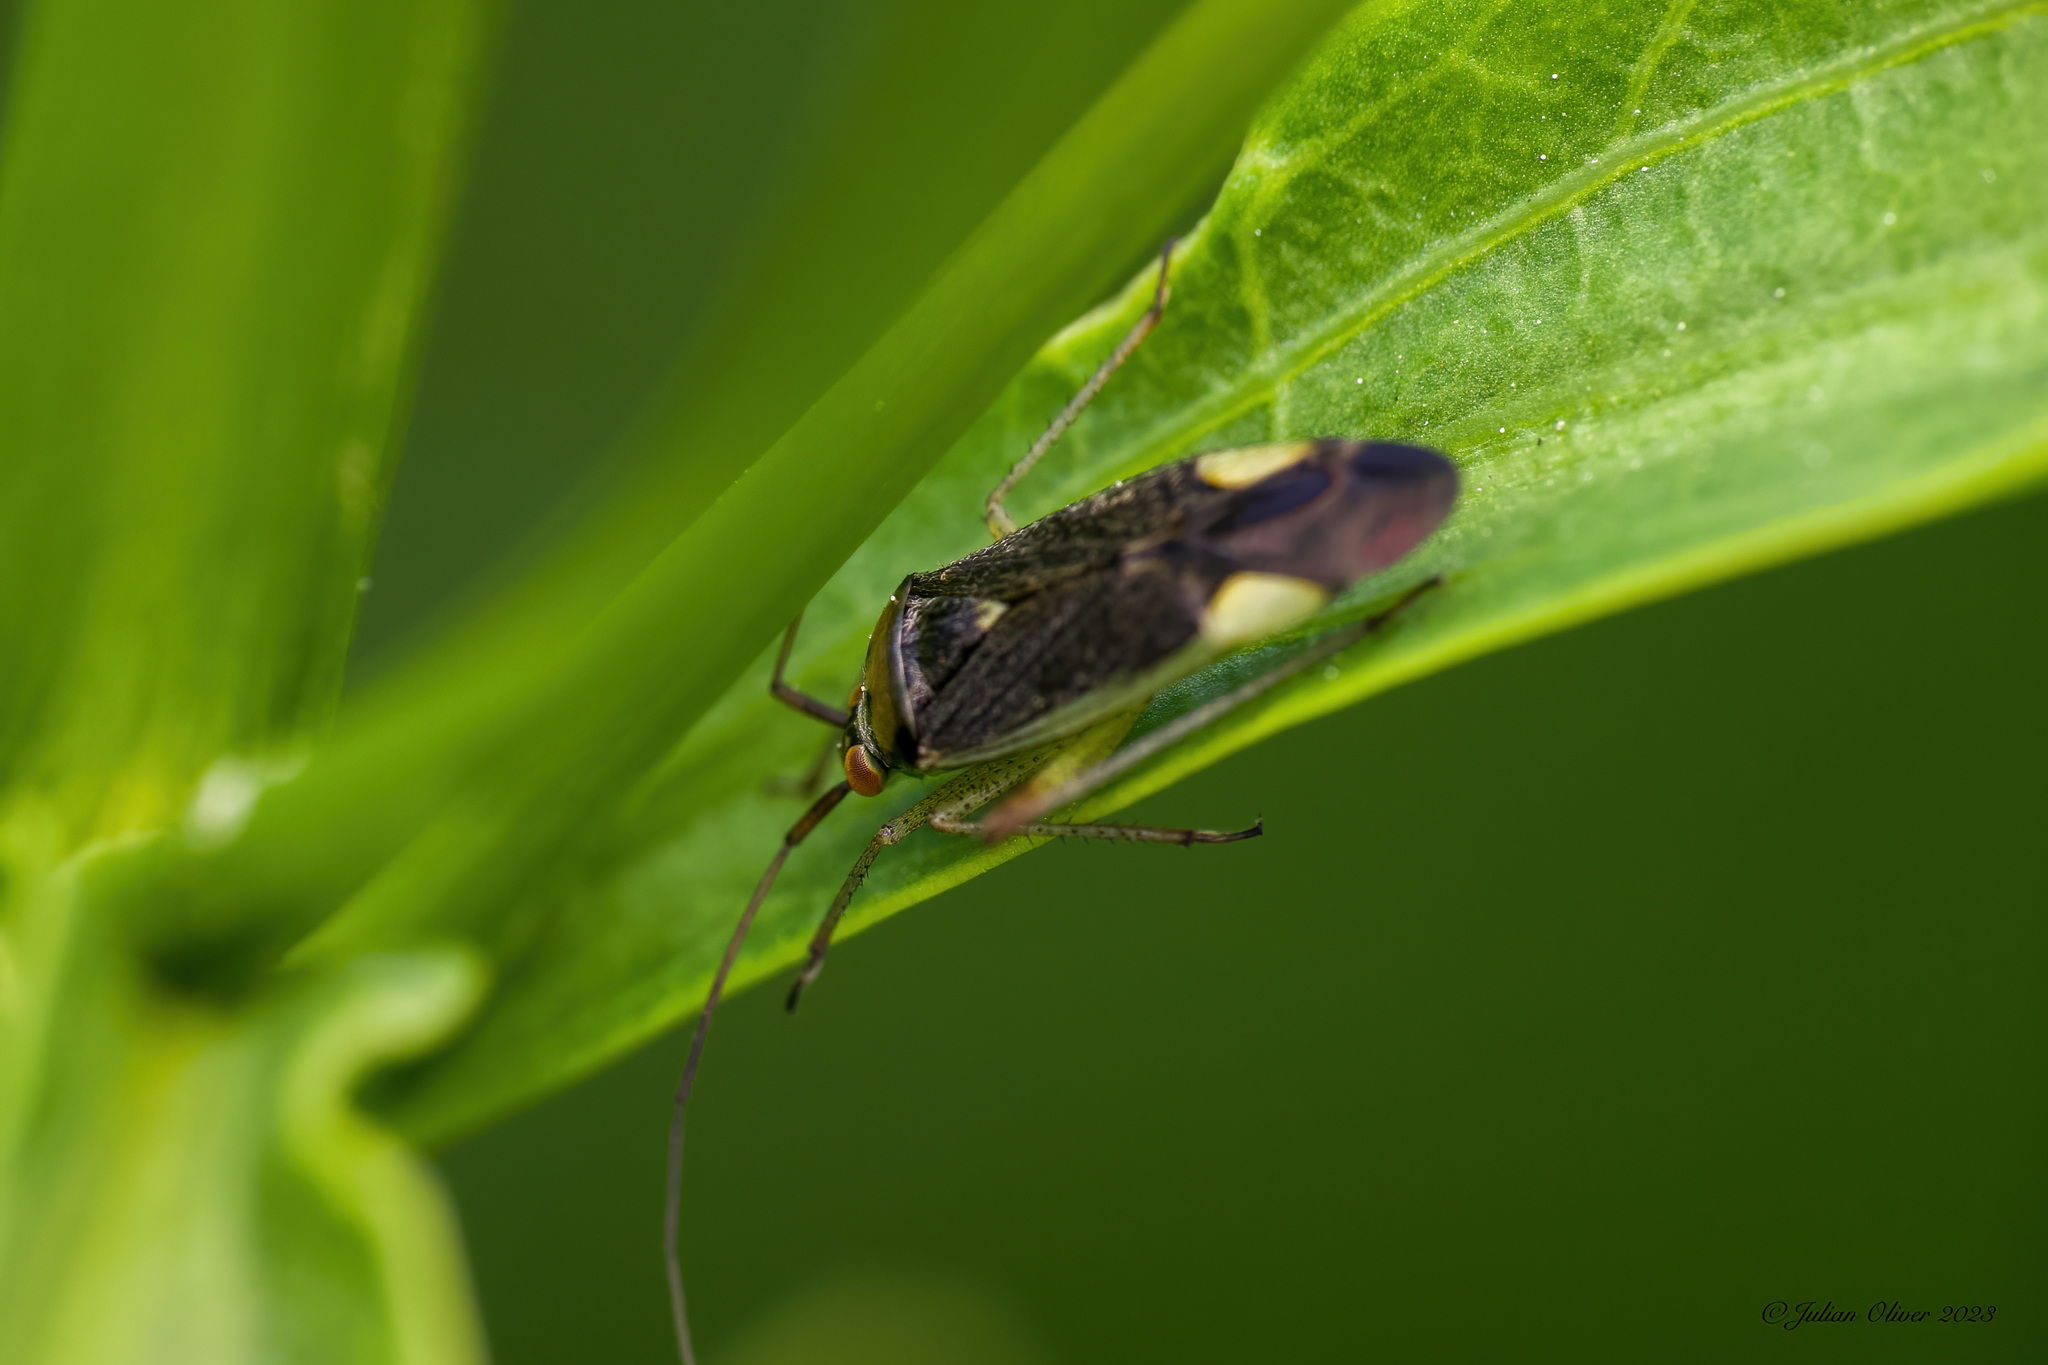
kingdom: Animalia
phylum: Arthropoda
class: Insecta
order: Hemiptera
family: Miridae
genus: Closterotomus
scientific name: Closterotomus trivialis
